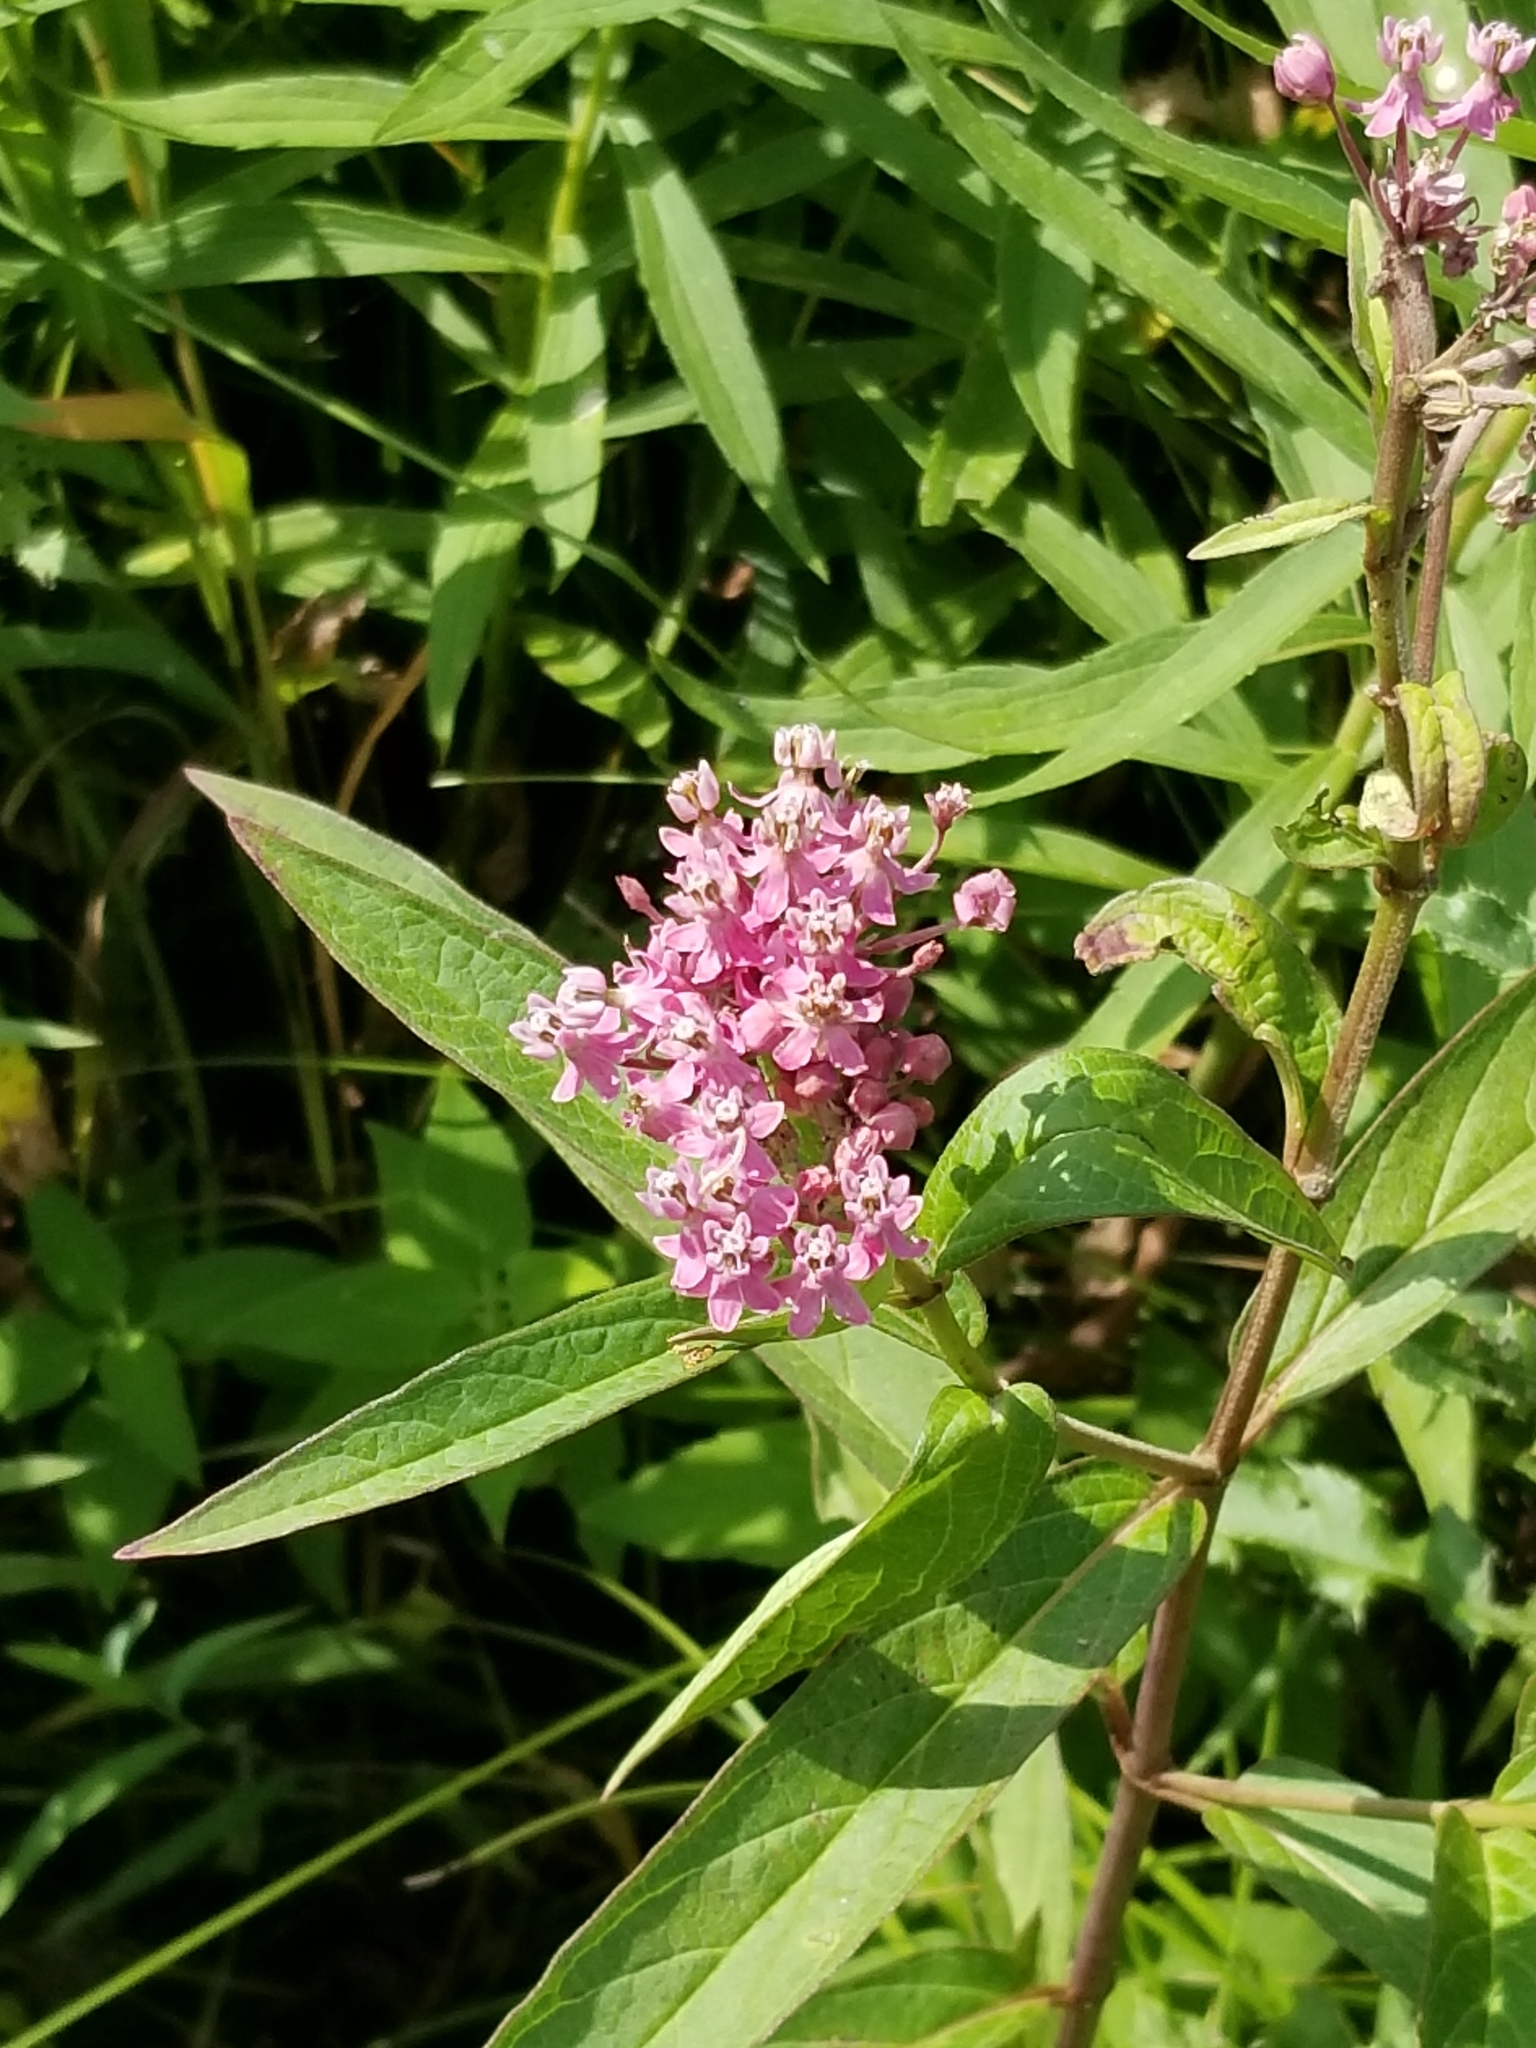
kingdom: Plantae
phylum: Tracheophyta
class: Magnoliopsida
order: Gentianales
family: Apocynaceae
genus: Asclepias
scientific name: Asclepias incarnata
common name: Swamp milkweed
